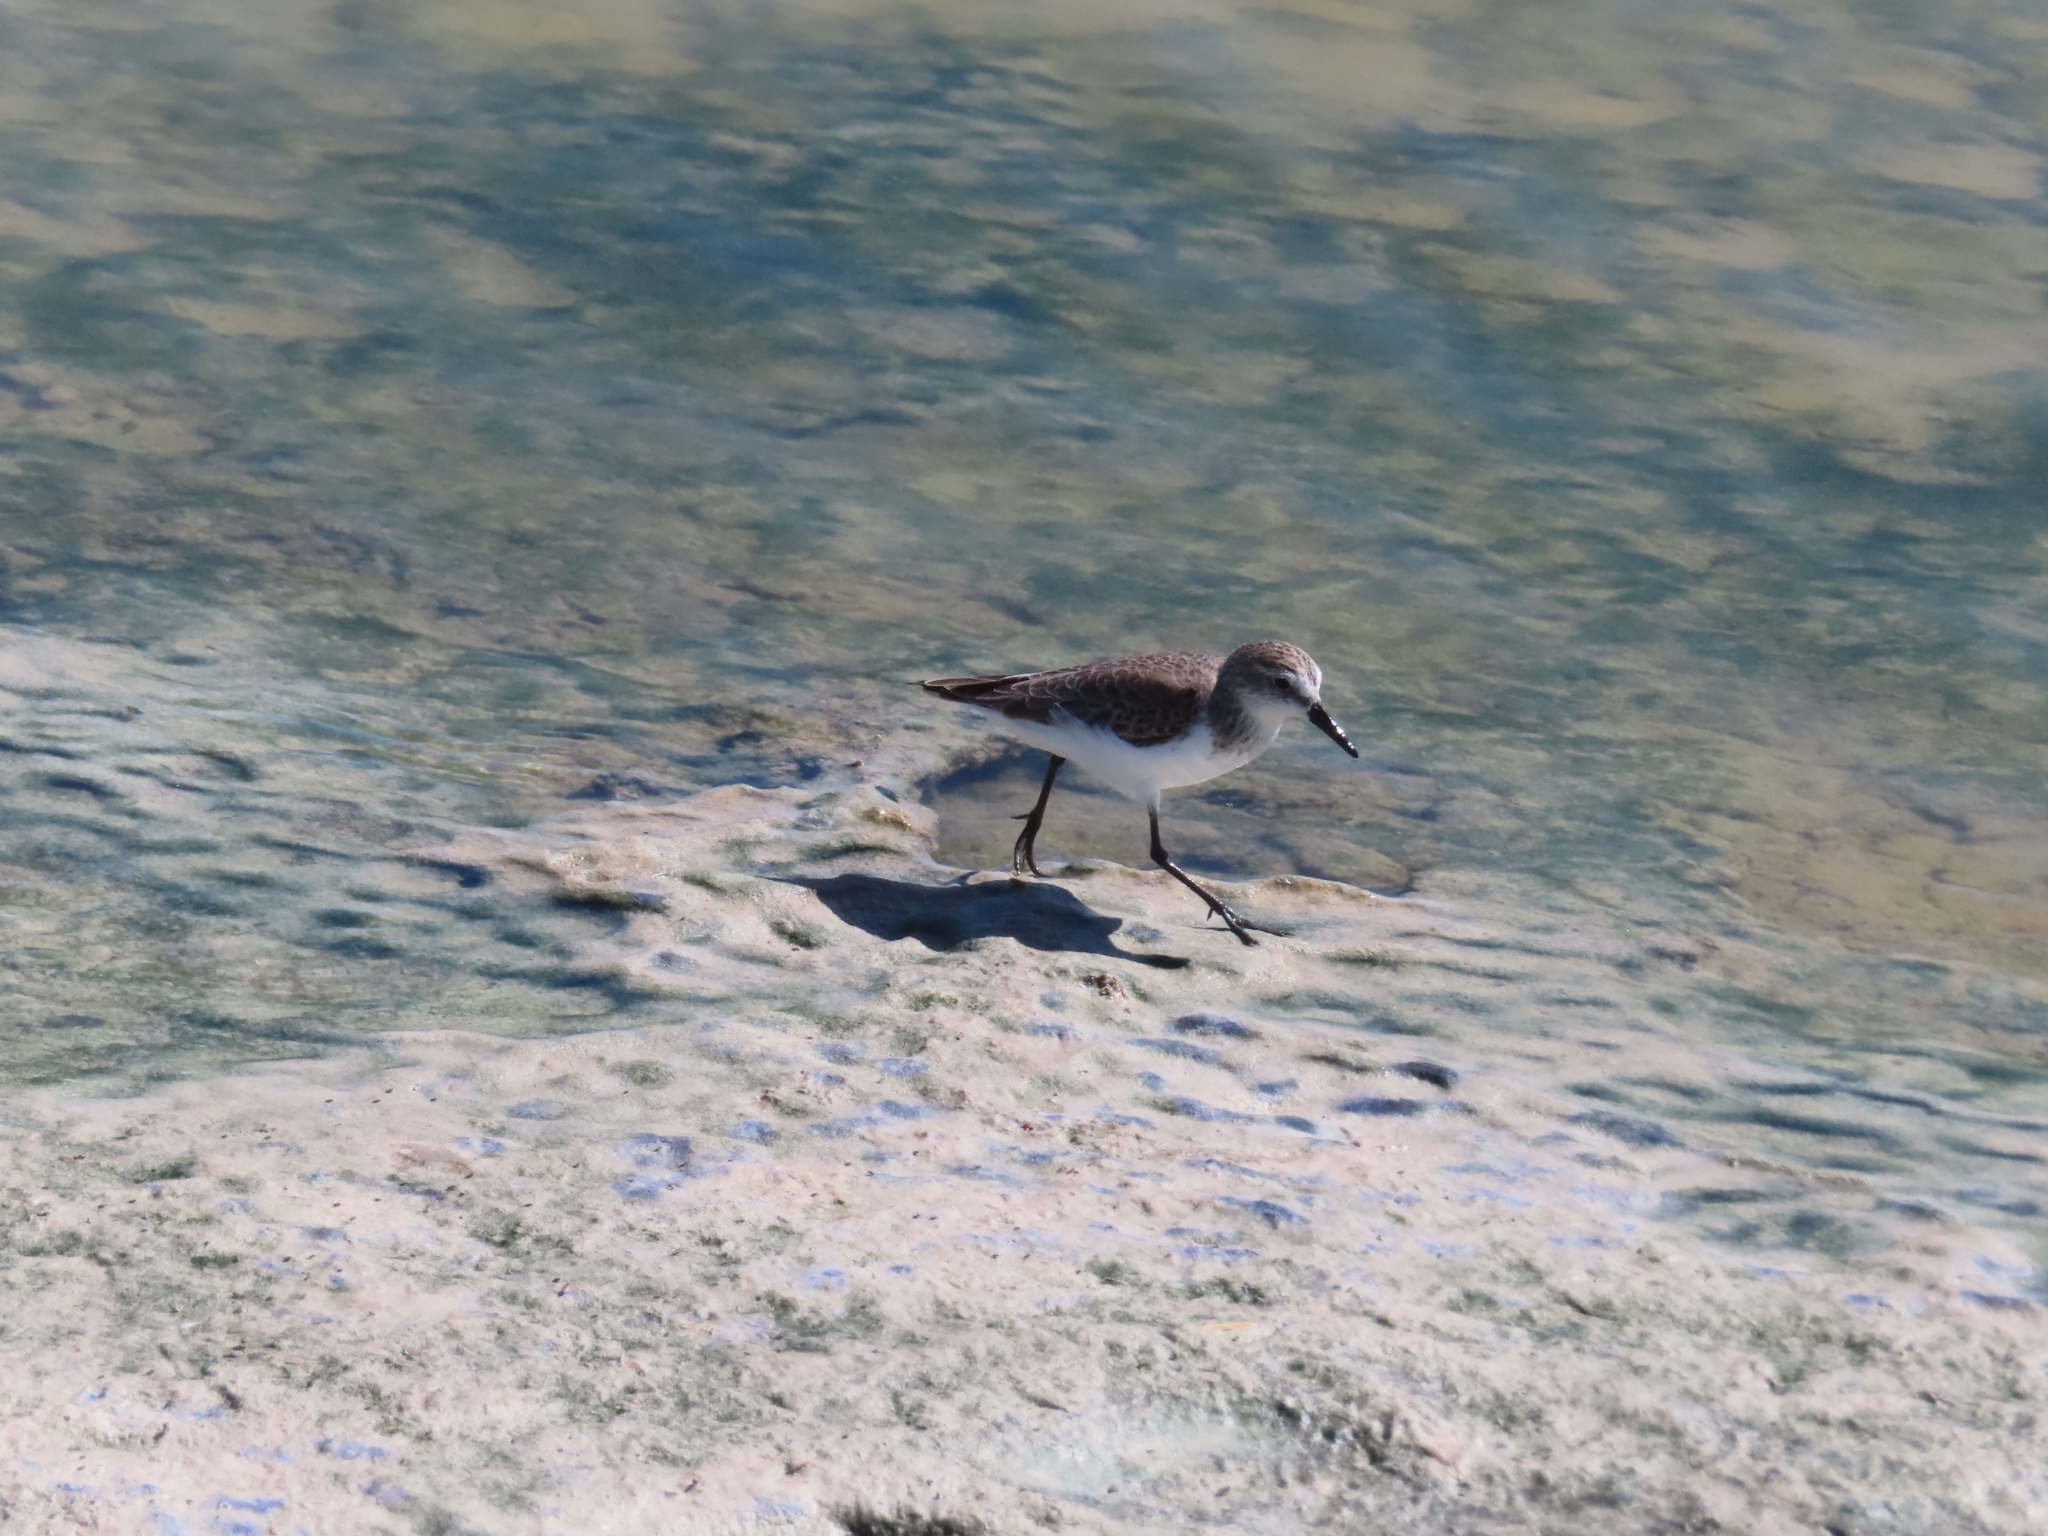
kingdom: Animalia
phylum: Chordata
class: Aves
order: Charadriiformes
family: Scolopacidae
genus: Calidris
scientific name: Calidris pusilla
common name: Semipalmated sandpiper
